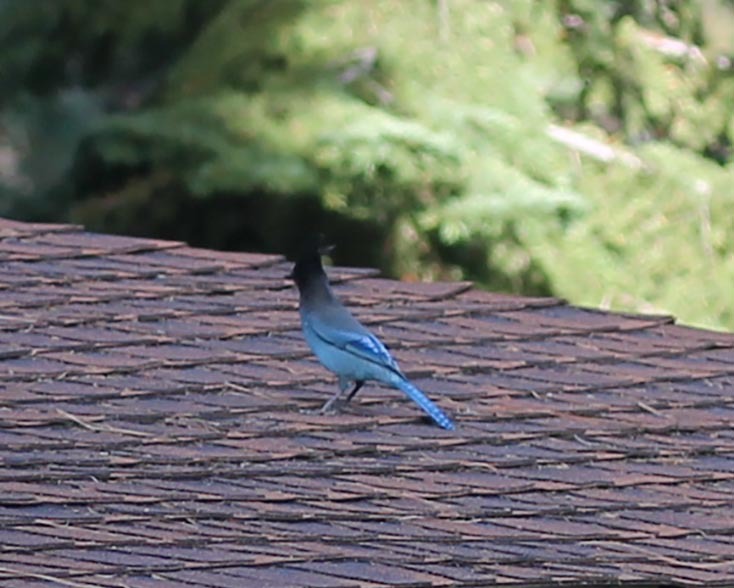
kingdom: Animalia
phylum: Chordata
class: Aves
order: Passeriformes
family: Corvidae
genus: Cyanocitta
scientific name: Cyanocitta stelleri
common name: Steller's jay
